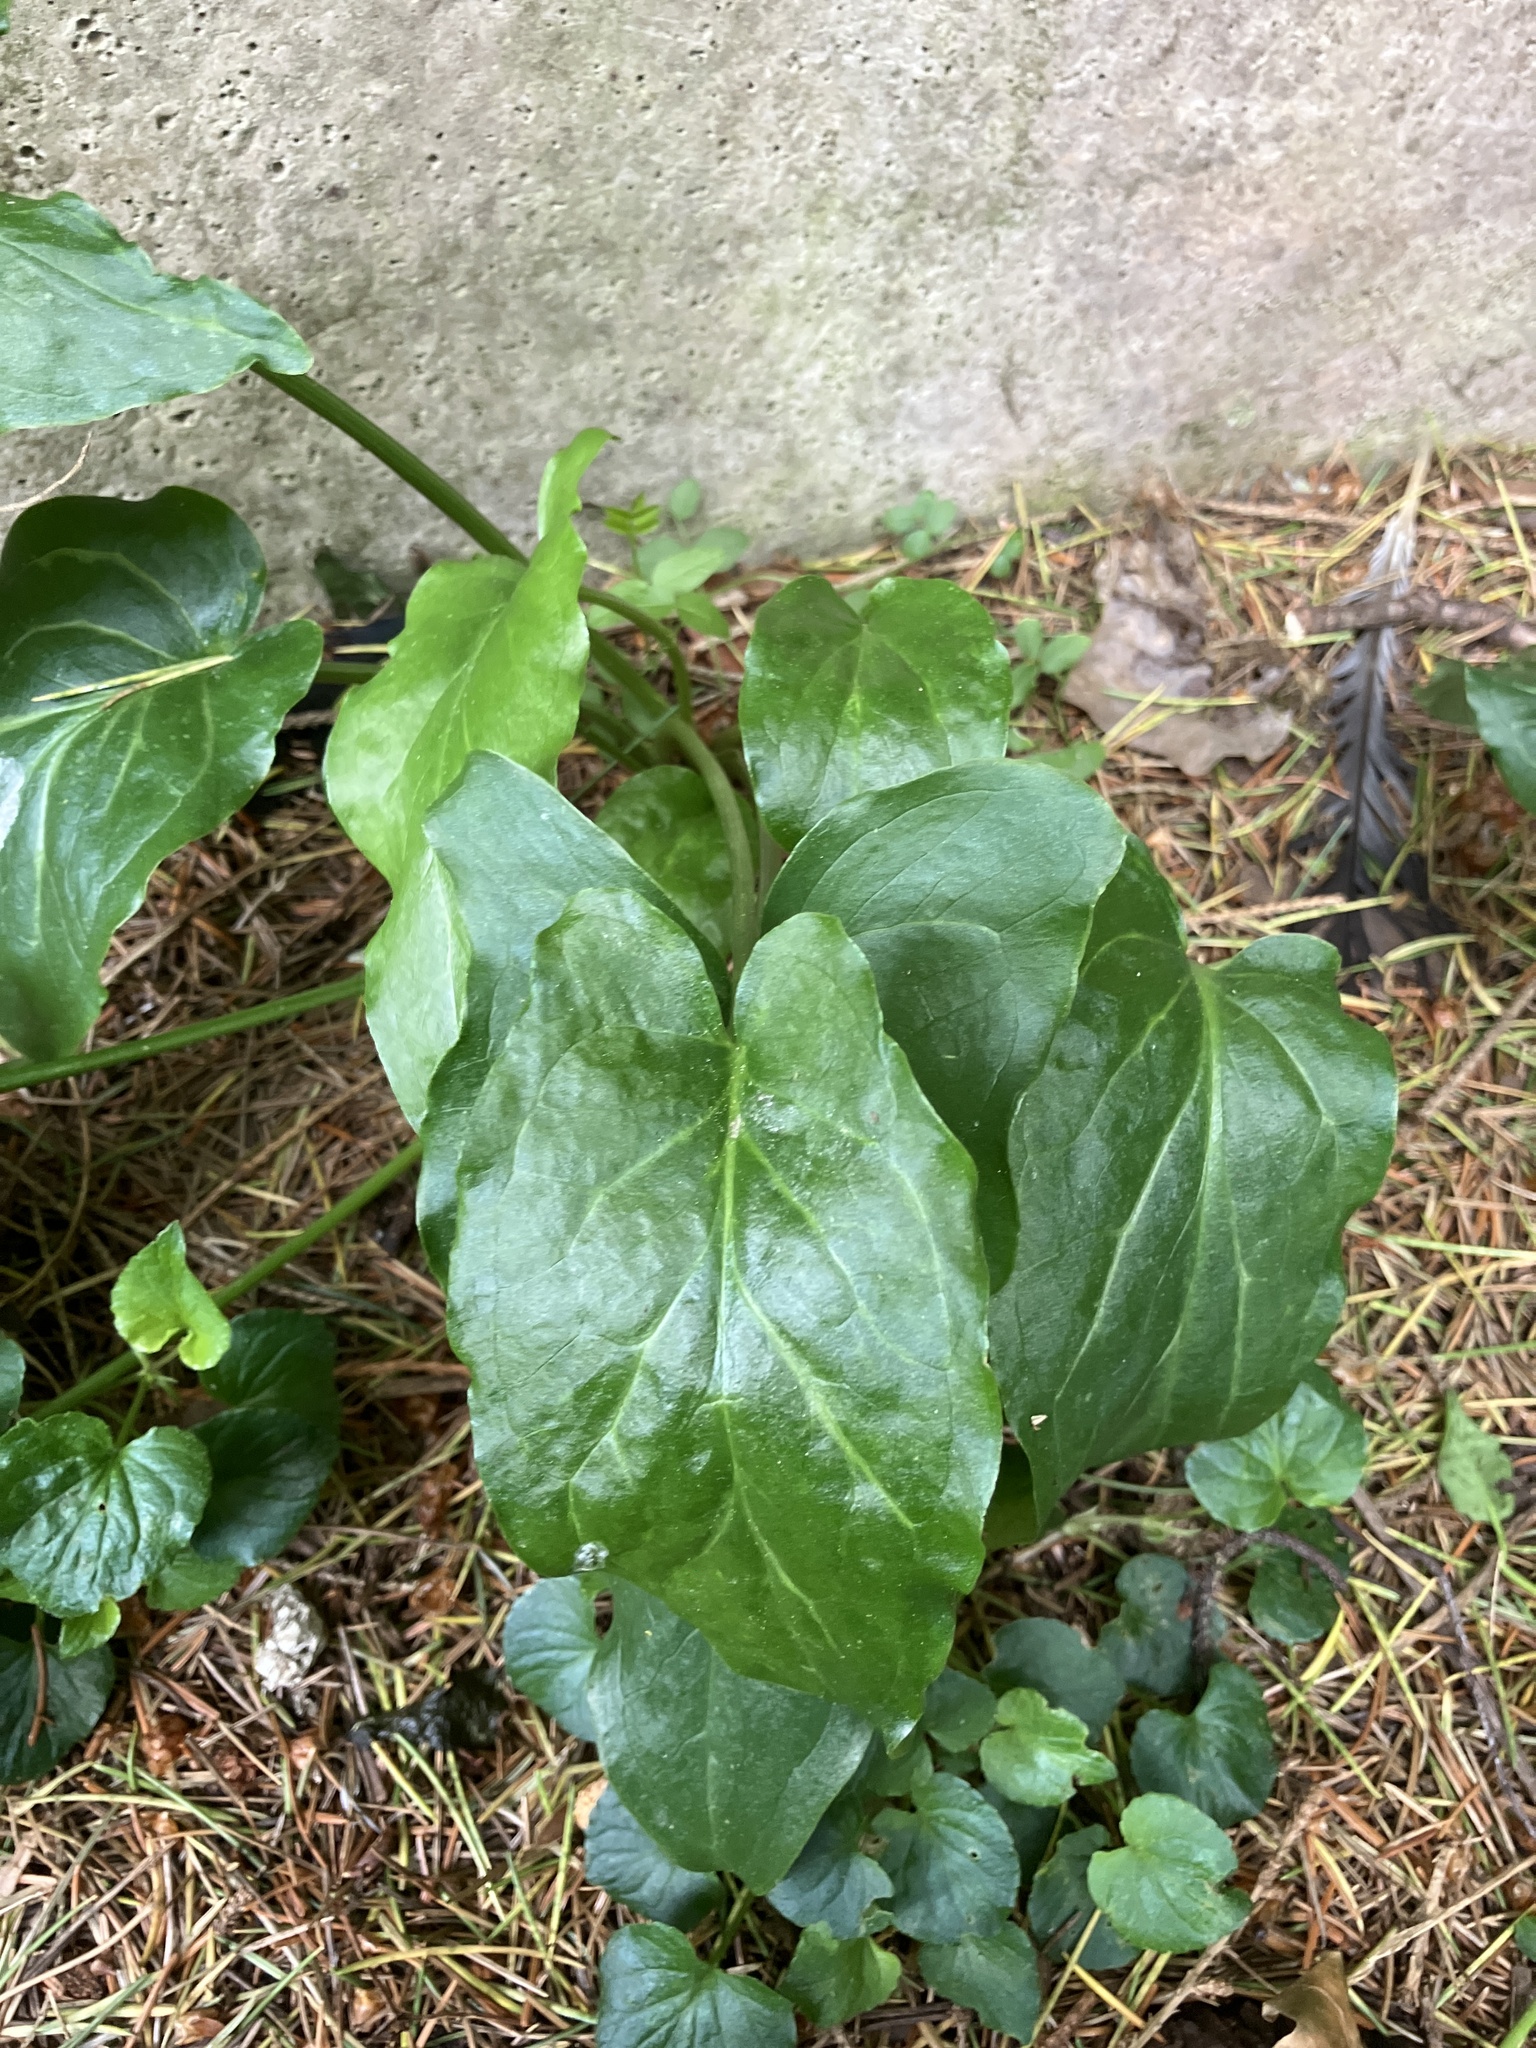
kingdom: Plantae
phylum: Tracheophyta
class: Liliopsida
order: Alismatales
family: Araceae
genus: Arum
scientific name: Arum maculatum
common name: Lords-and-ladies
